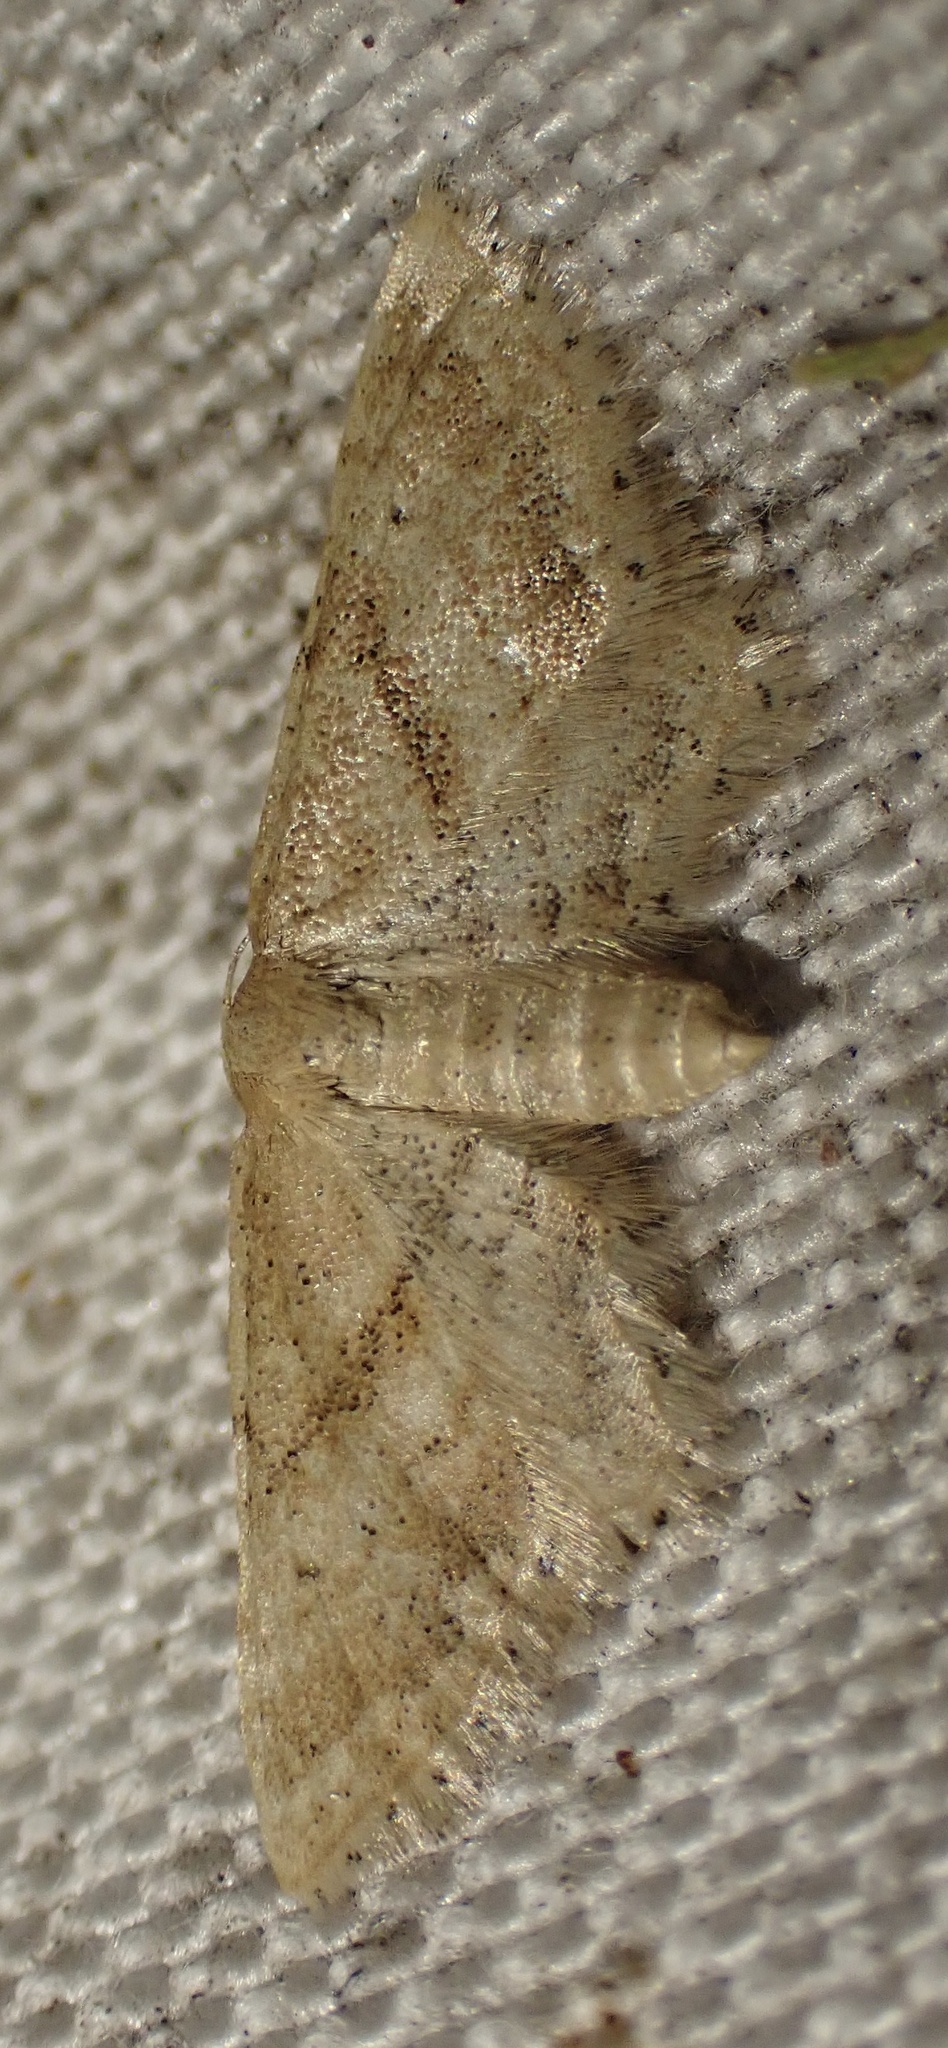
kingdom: Animalia
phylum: Arthropoda
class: Insecta
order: Lepidoptera
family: Geometridae
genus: Idaea
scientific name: Idaea fractilineata
